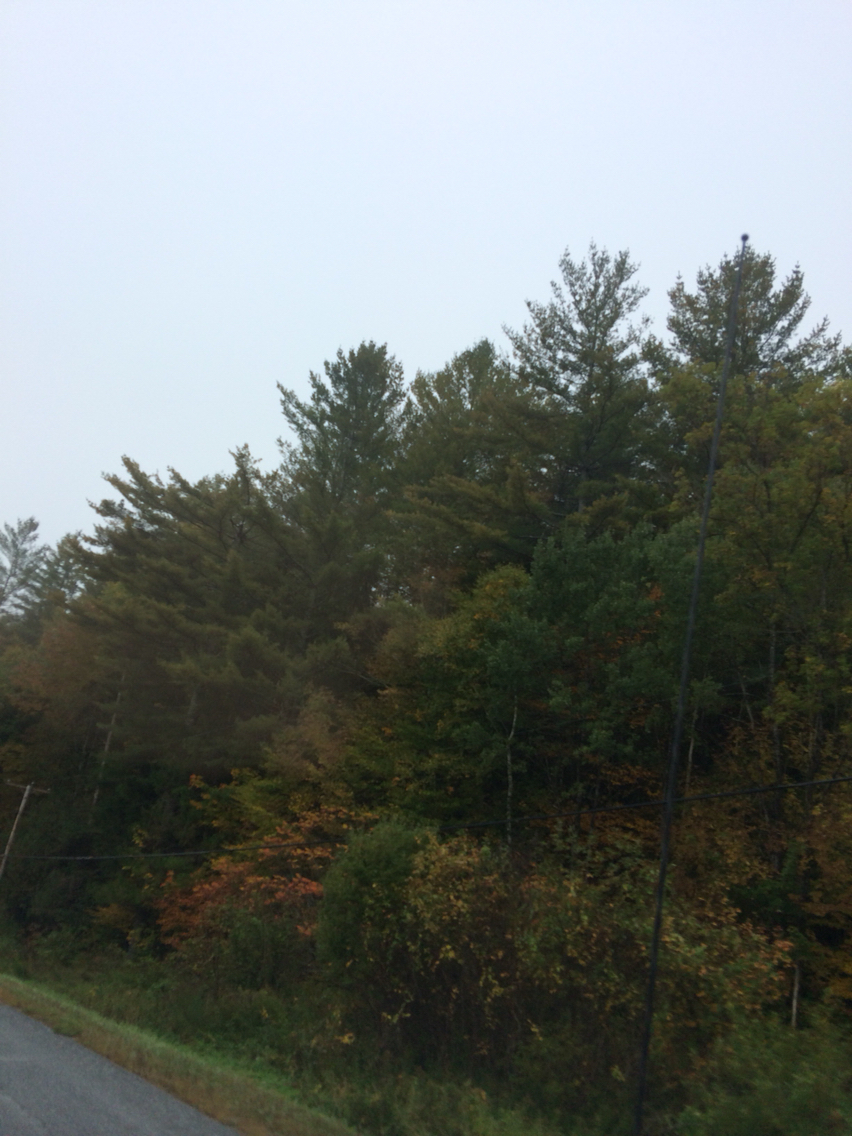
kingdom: Plantae
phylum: Tracheophyta
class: Pinopsida
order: Pinales
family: Pinaceae
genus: Pinus
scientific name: Pinus strobus
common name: Weymouth pine
